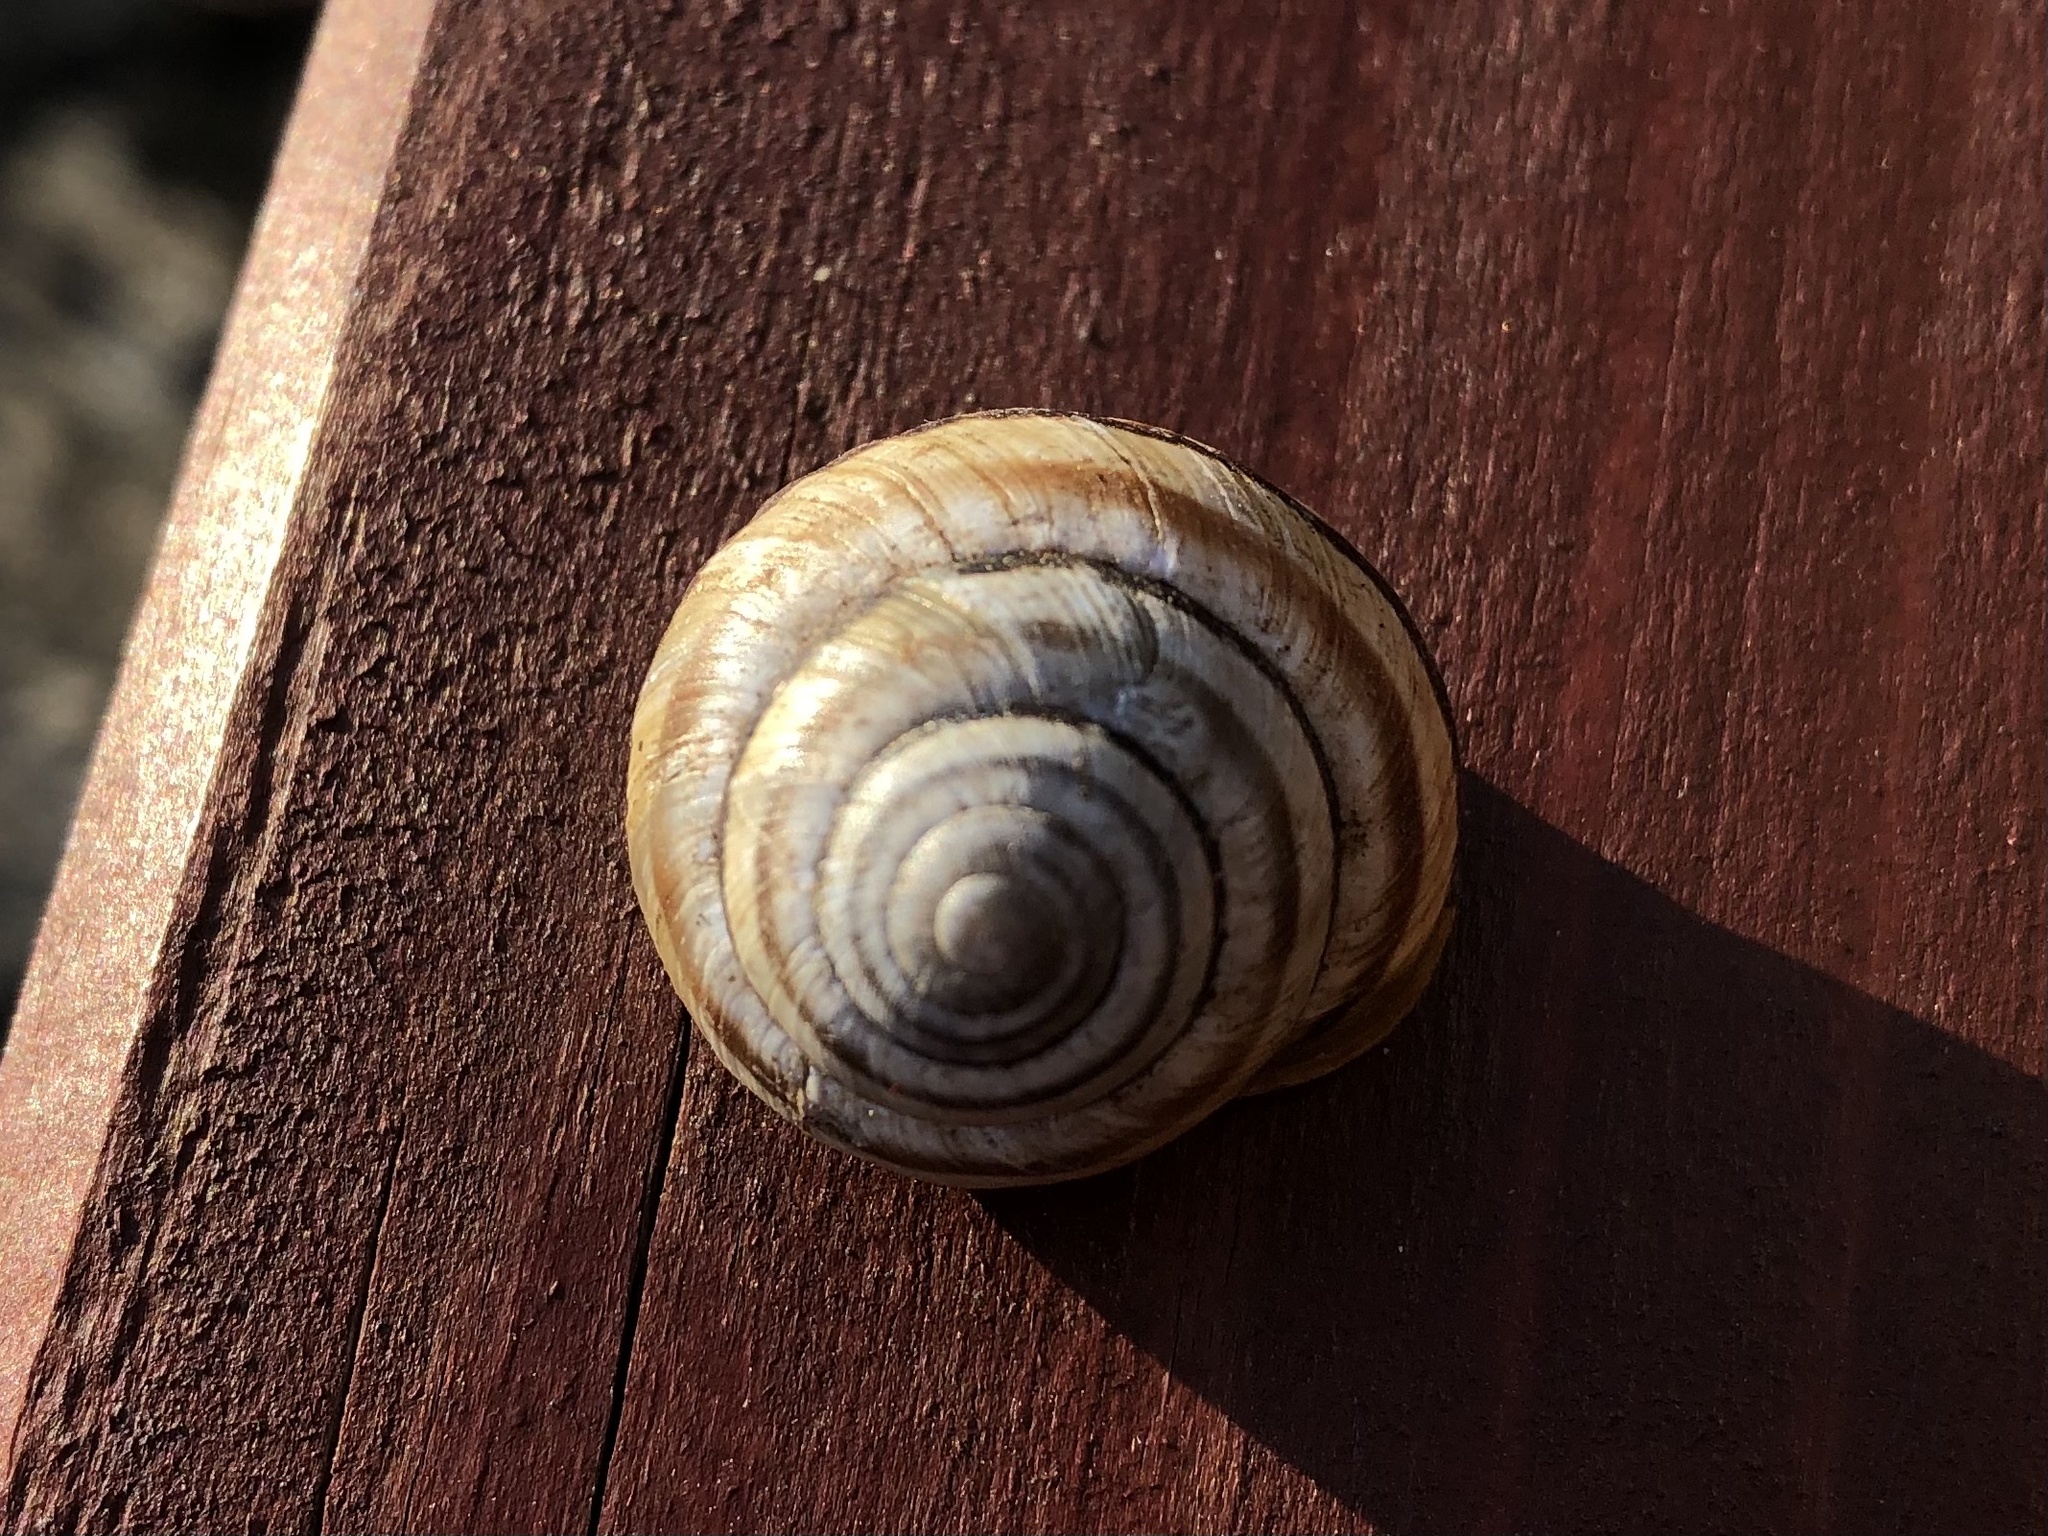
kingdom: Animalia
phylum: Mollusca
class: Gastropoda
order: Stylommatophora
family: Helicidae
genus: Caucasotachea
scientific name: Caucasotachea vindobonensis
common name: European helicid land snail
